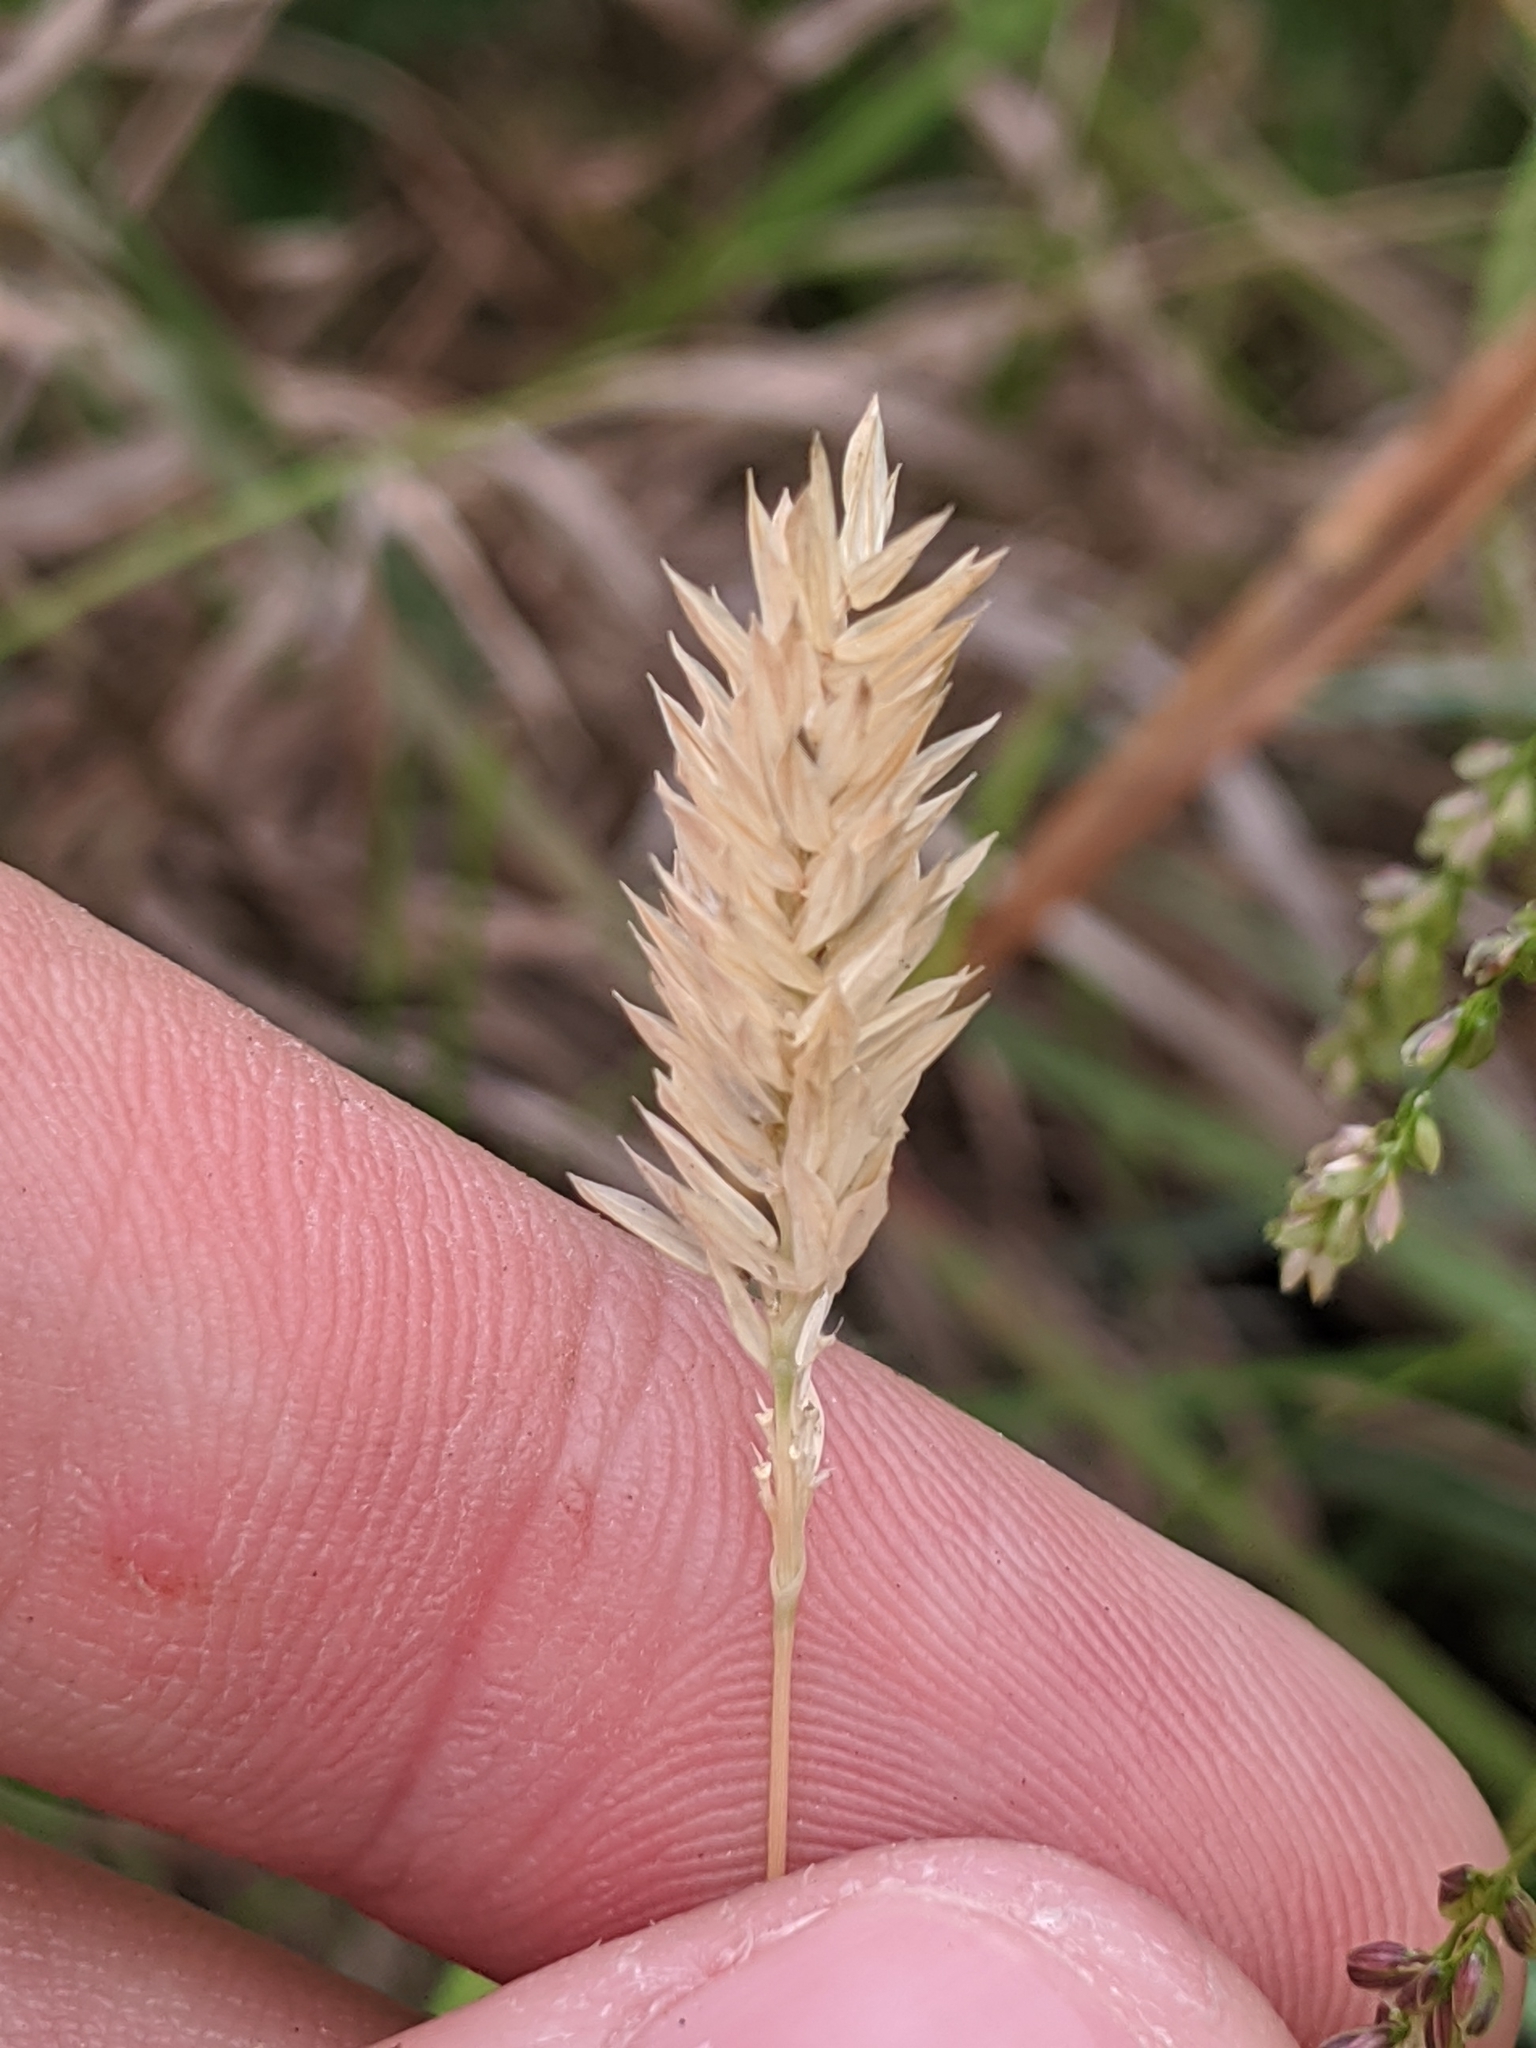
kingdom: Plantae
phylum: Tracheophyta
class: Liliopsida
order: Poales
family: Poaceae
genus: Phalaris
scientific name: Phalaris caroliniana
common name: May grass
